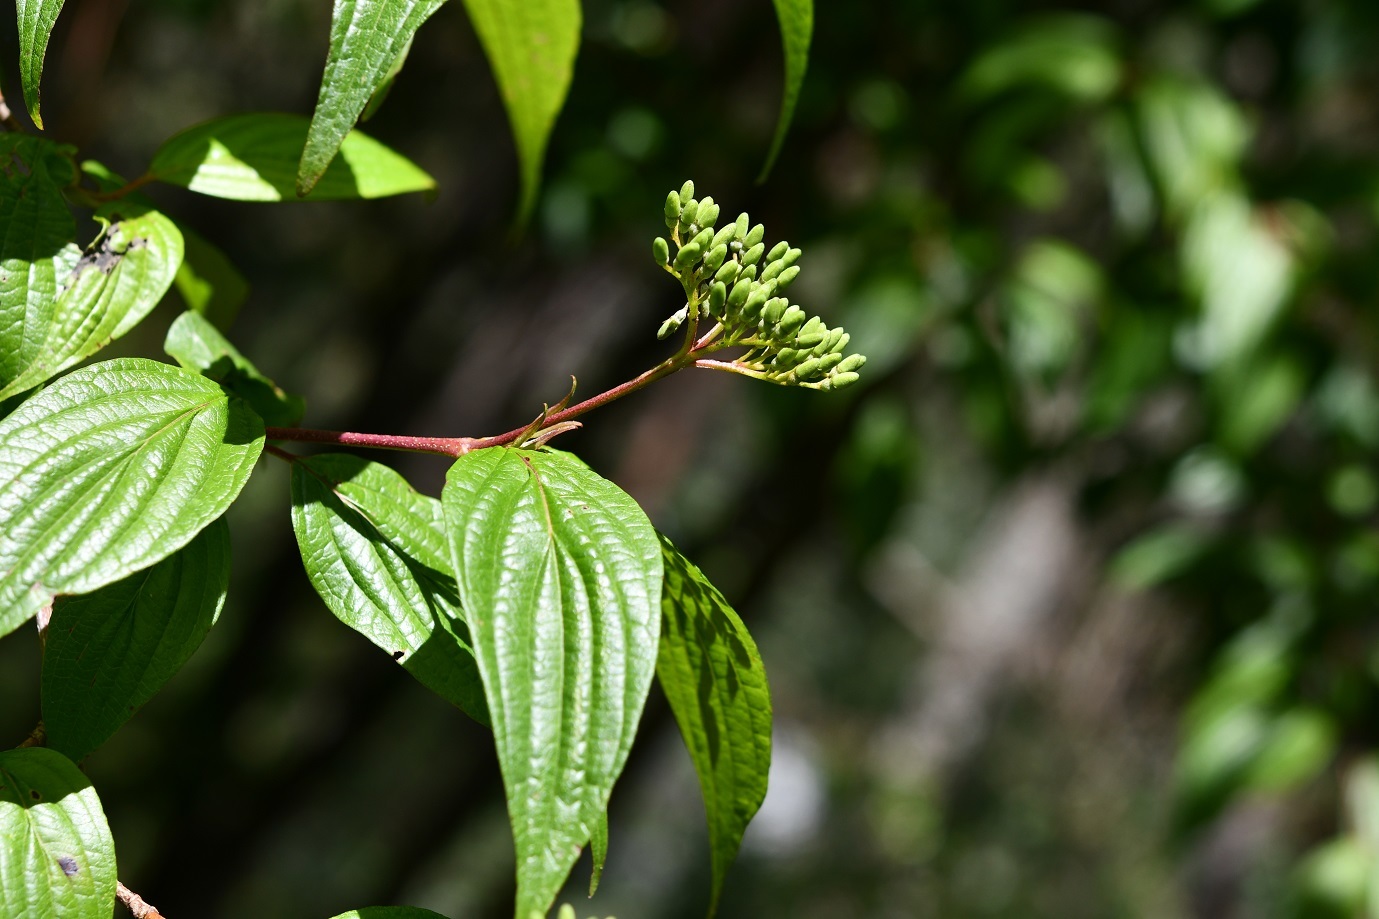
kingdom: Plantae
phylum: Tracheophyta
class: Magnoliopsida
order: Cornales
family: Cornaceae
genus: Cornus
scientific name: Cornus excelsa
